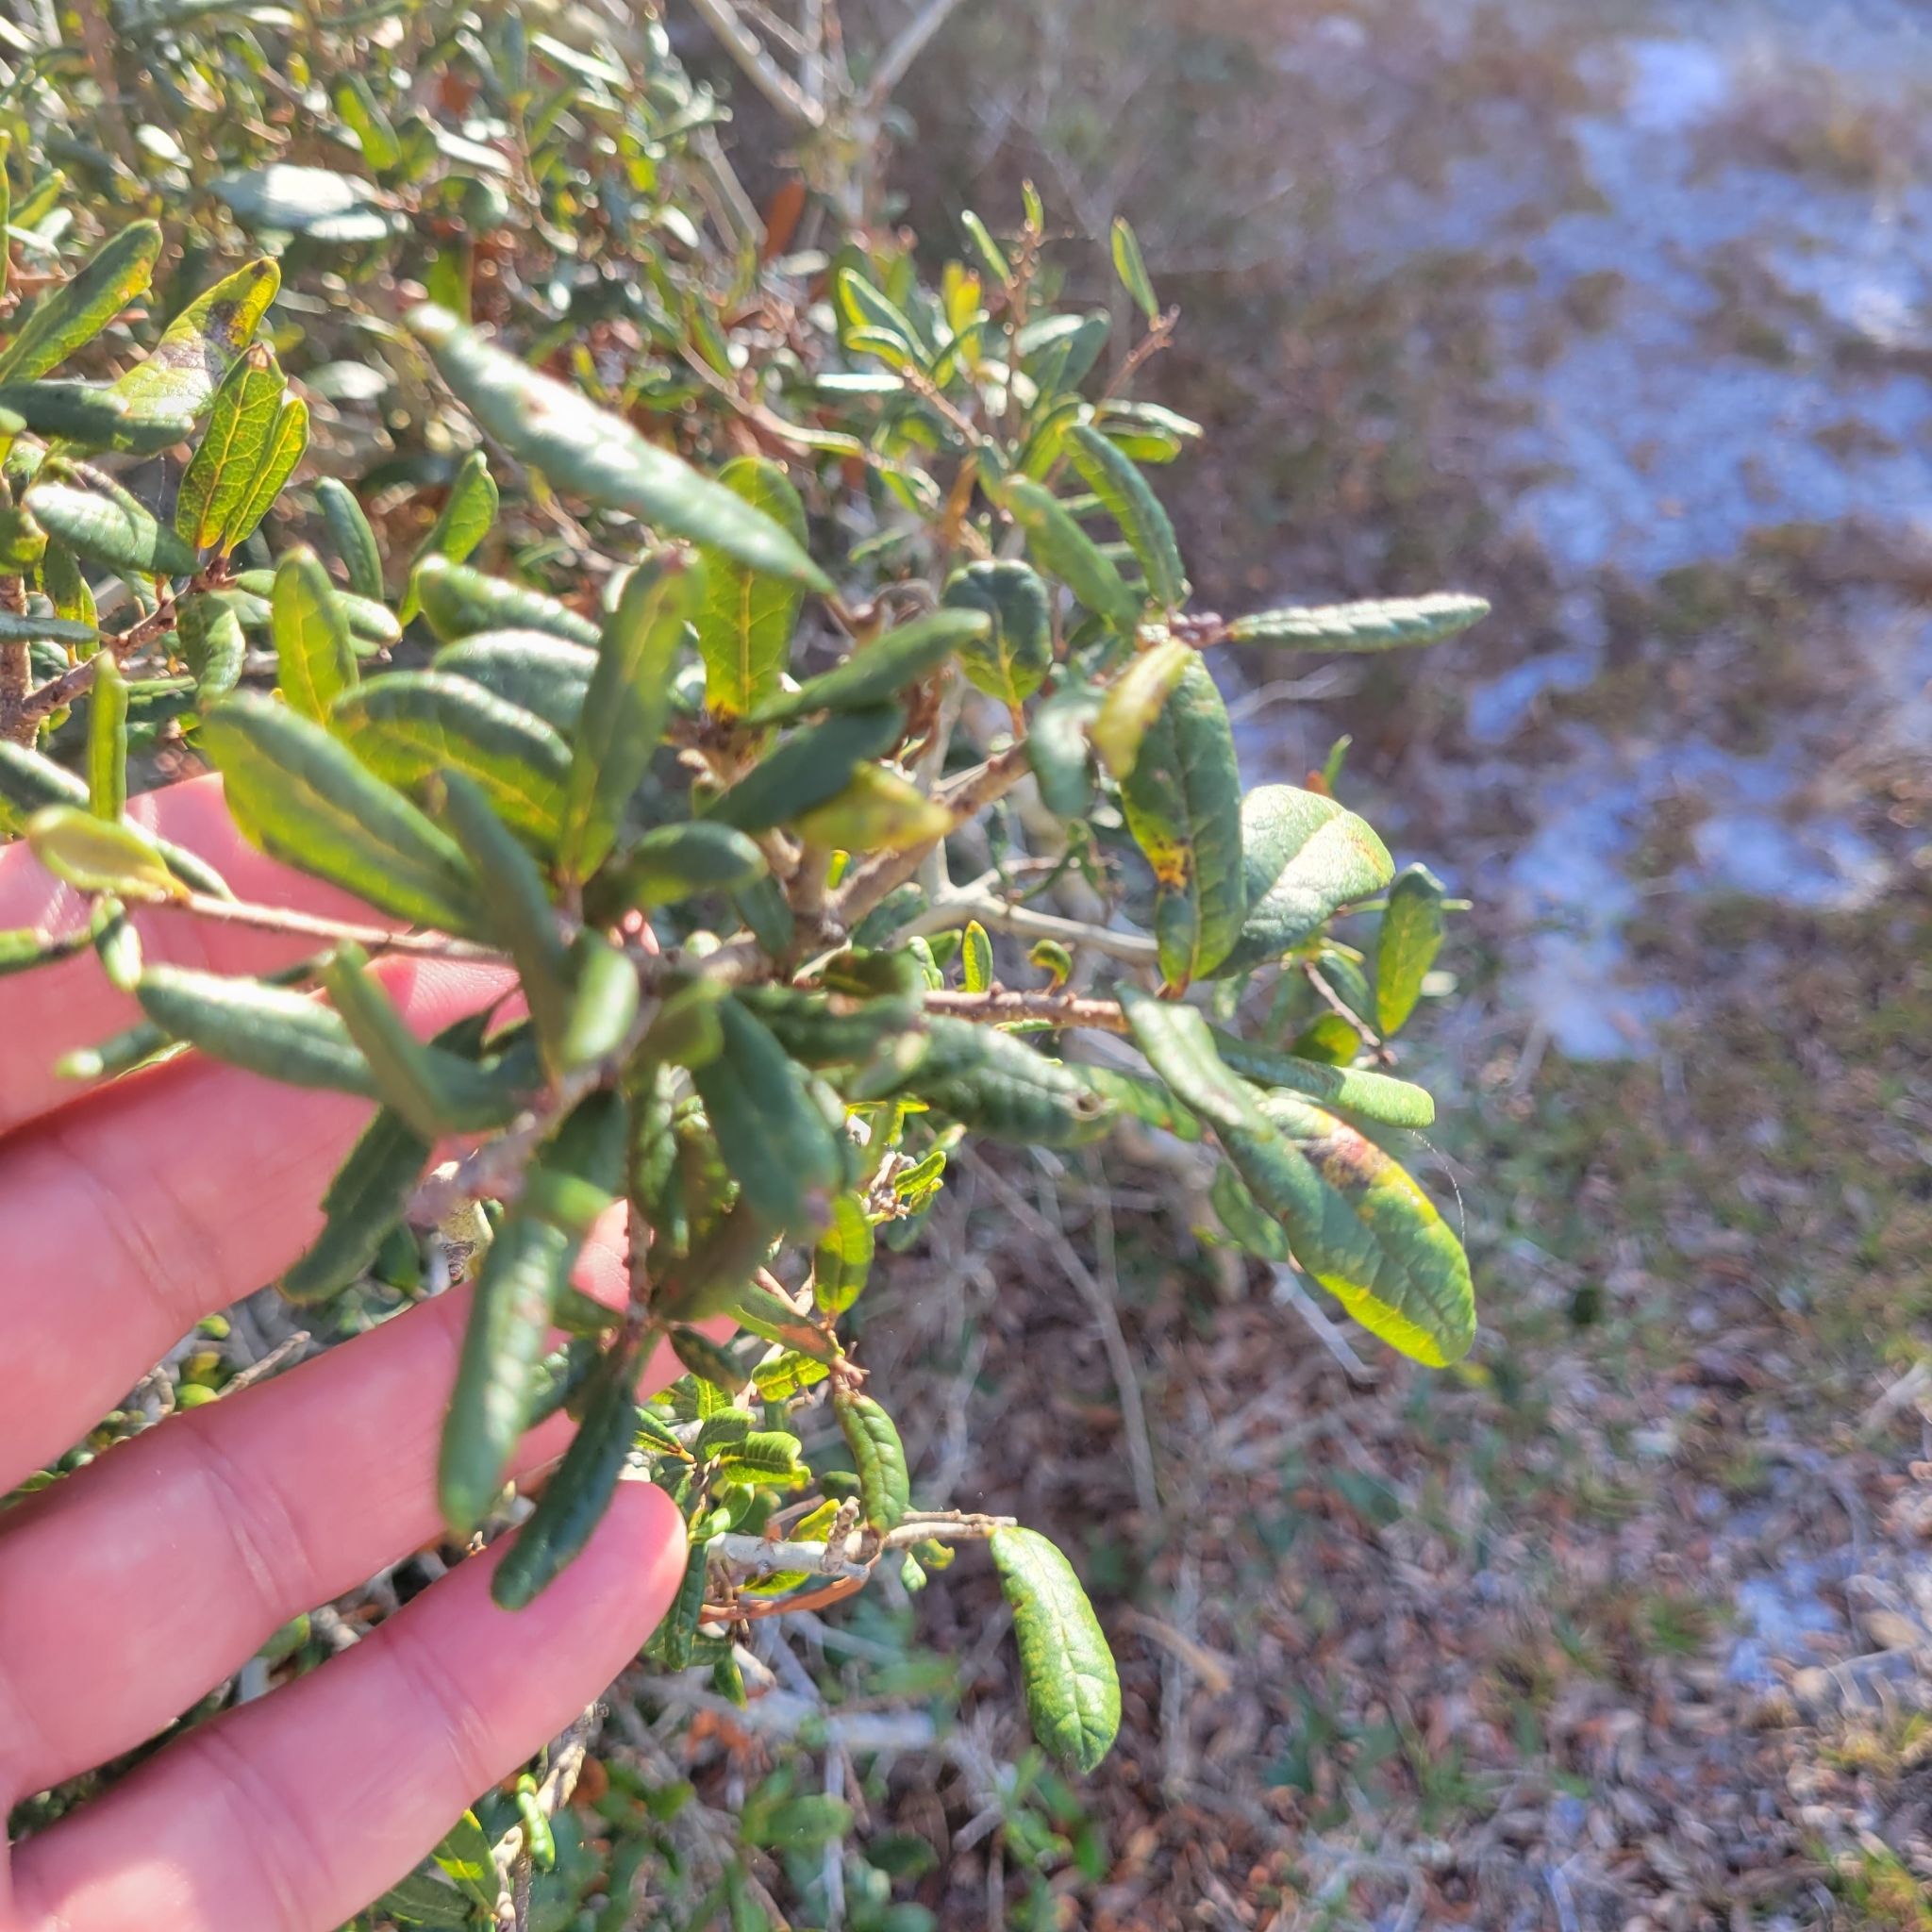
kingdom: Plantae
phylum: Tracheophyta
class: Magnoliopsida
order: Fagales
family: Fagaceae
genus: Quercus
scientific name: Quercus geminata
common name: Sand live oak
